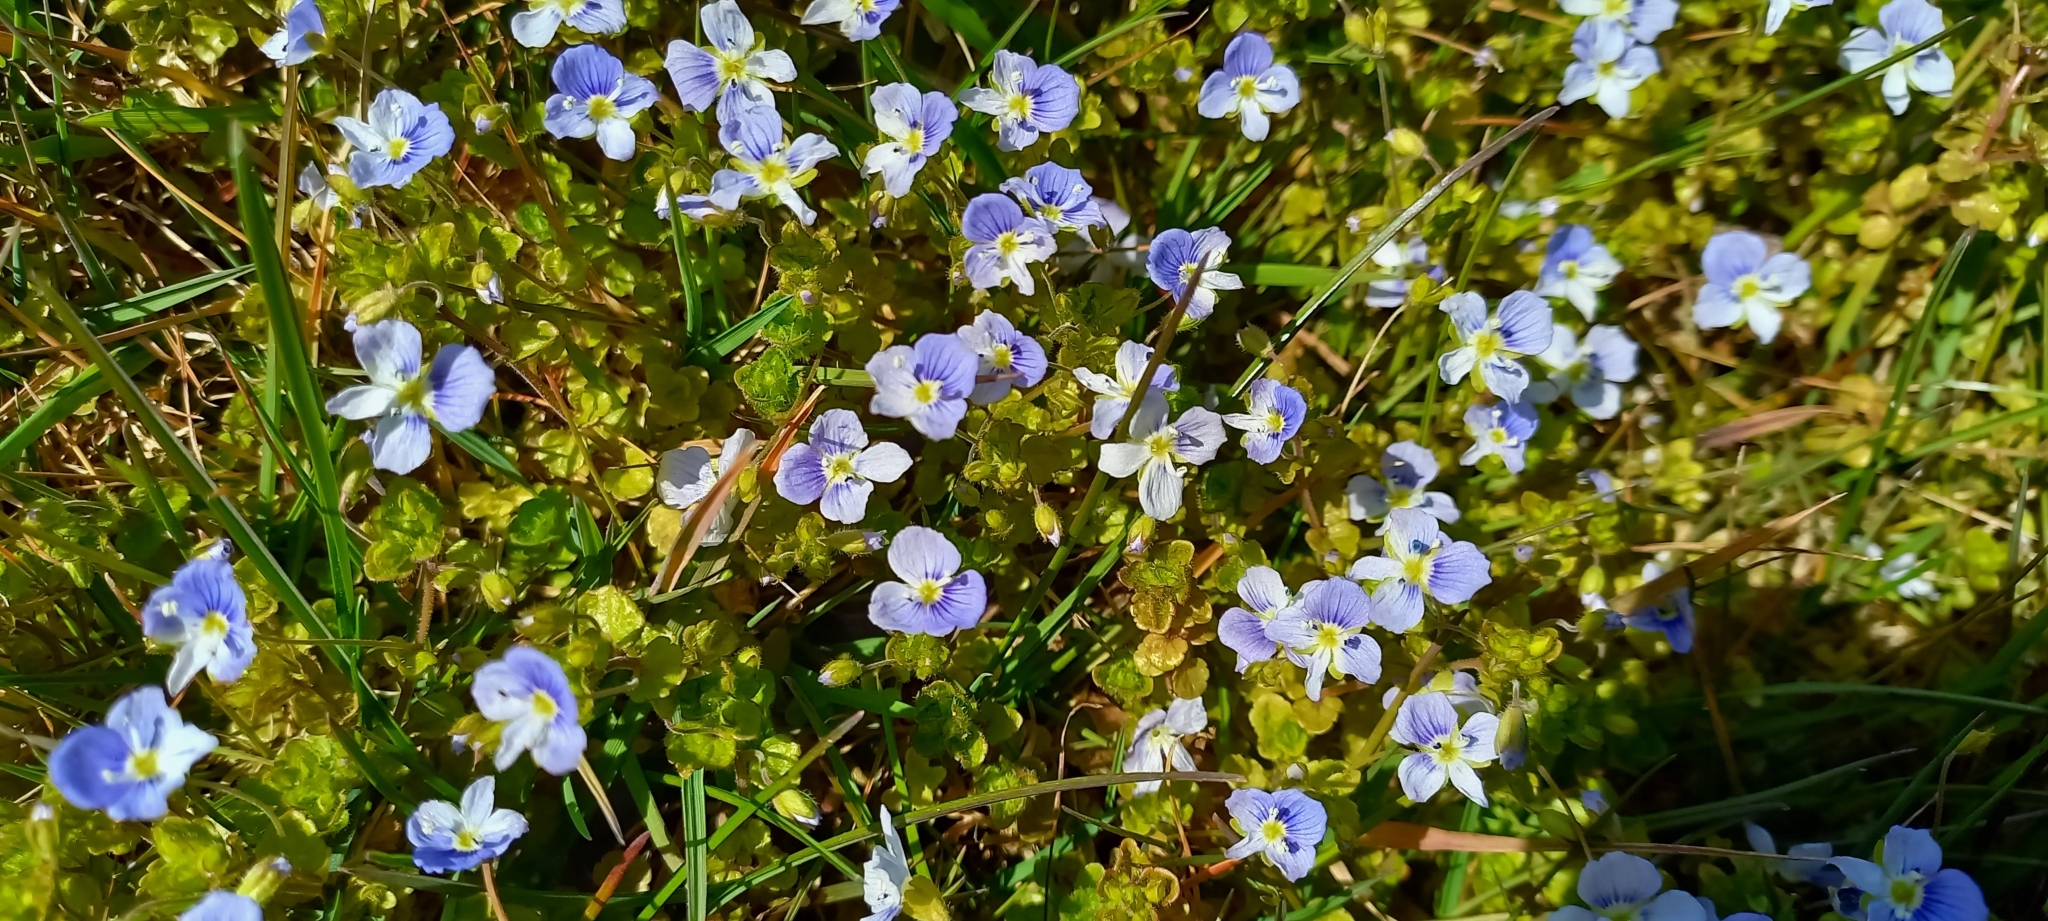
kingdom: Plantae
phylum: Tracheophyta
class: Magnoliopsida
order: Lamiales
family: Plantaginaceae
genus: Veronica
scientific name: Veronica filiformis
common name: Slender speedwell
